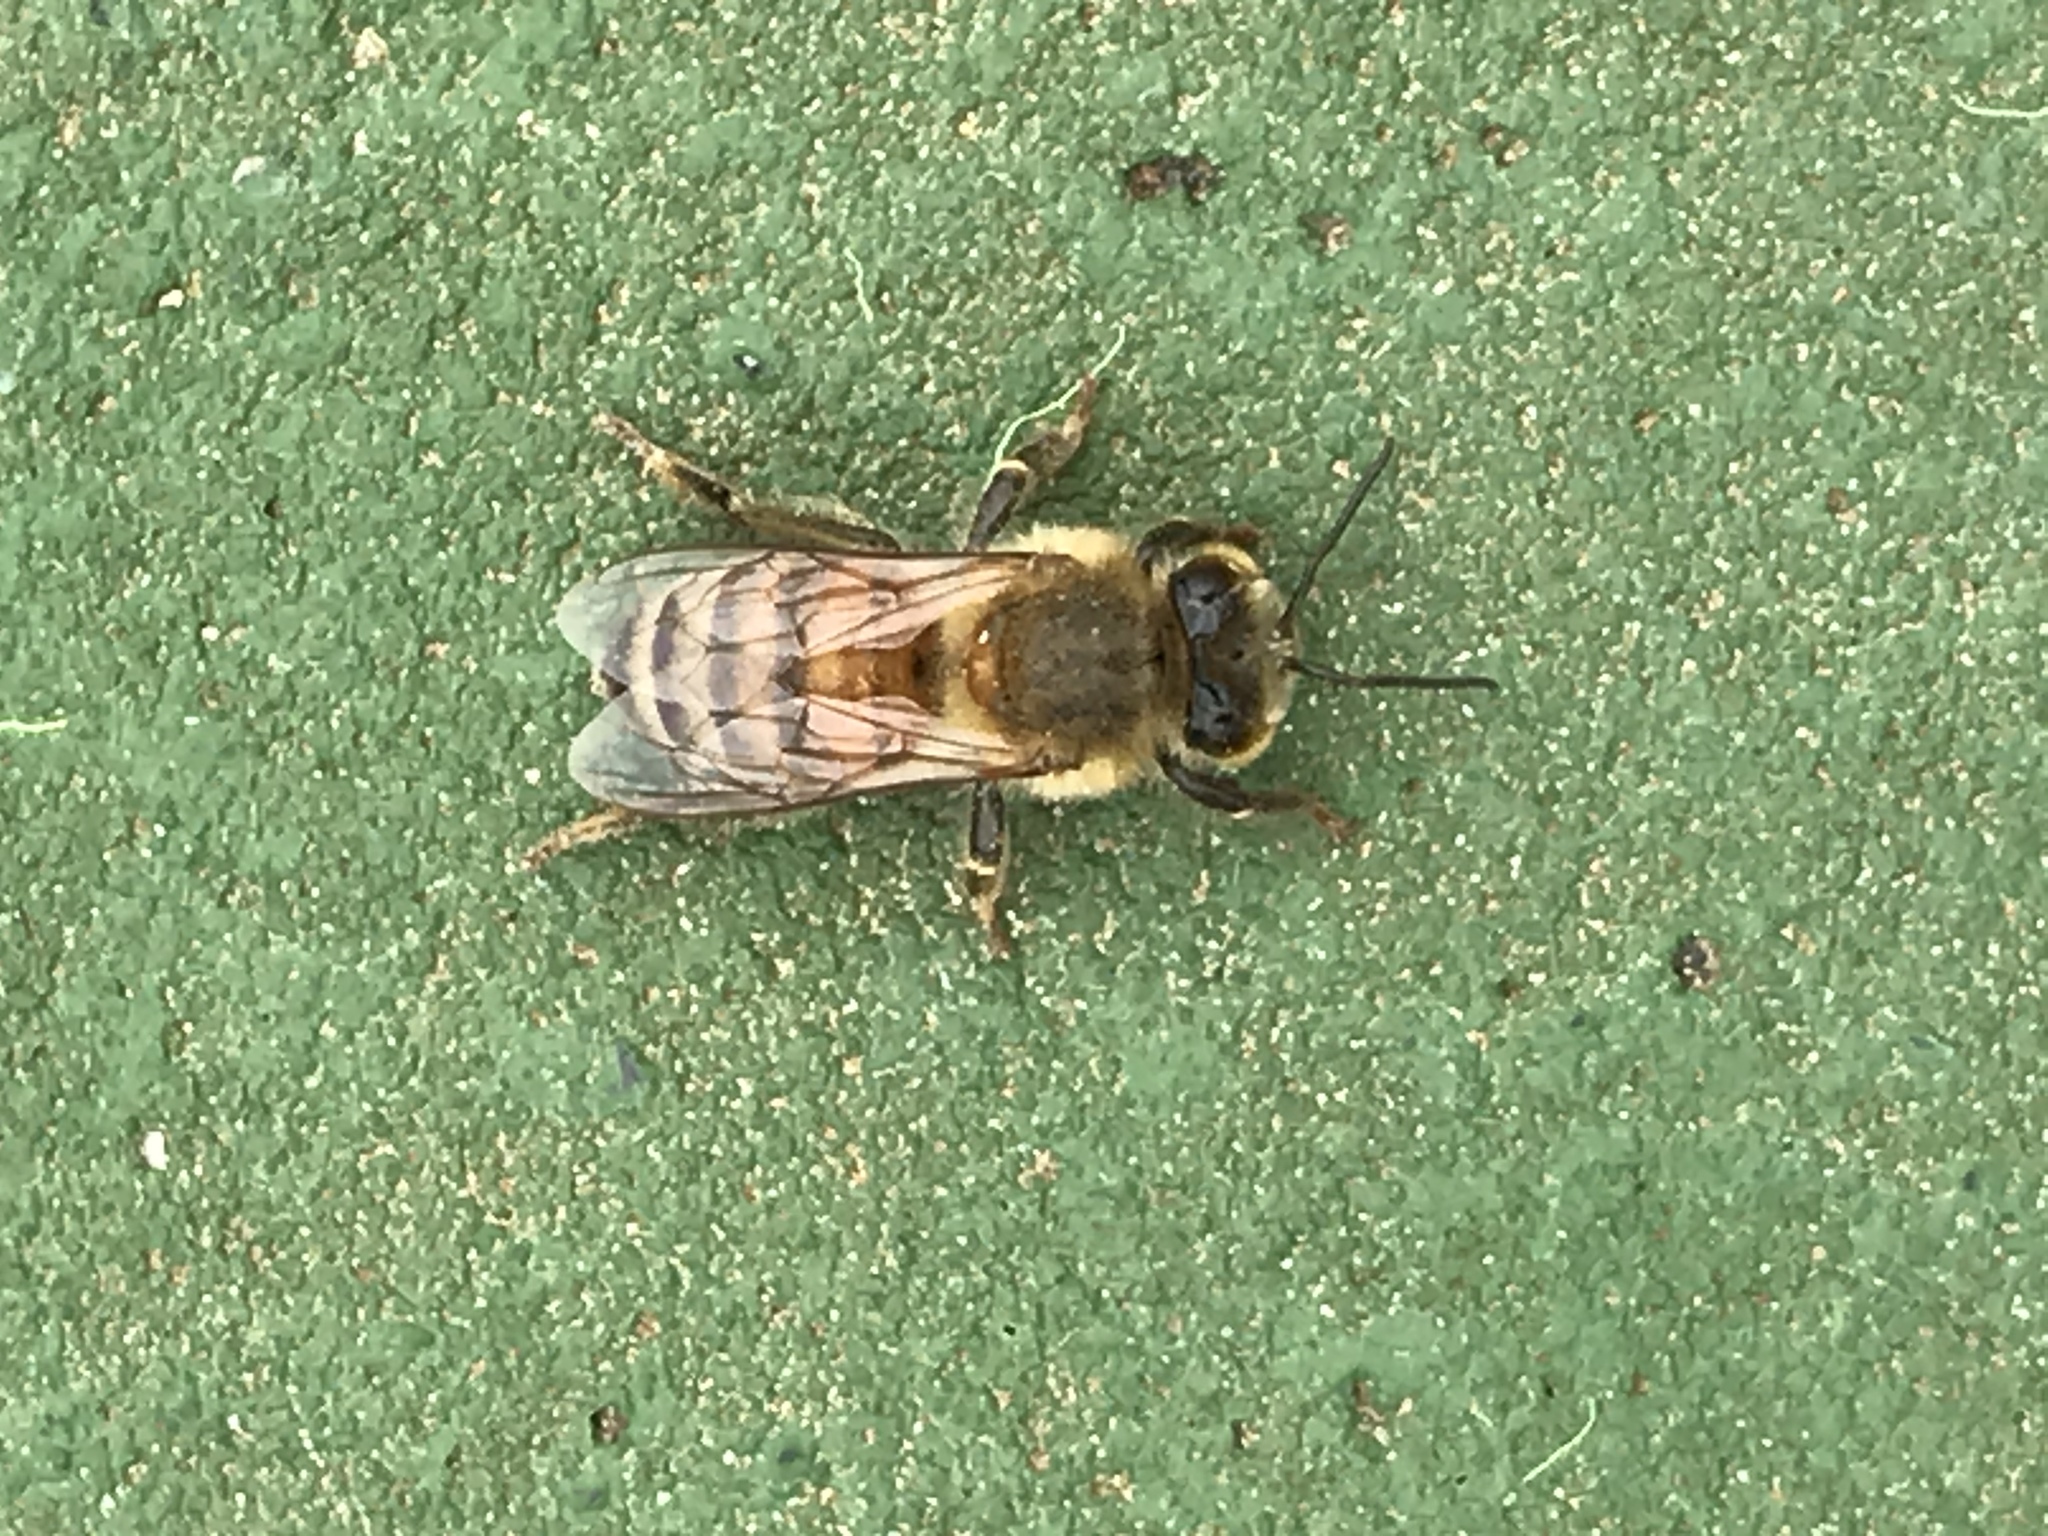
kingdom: Animalia
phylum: Arthropoda
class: Insecta
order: Hymenoptera
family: Apidae
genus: Apis
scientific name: Apis mellifera
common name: Honey bee
